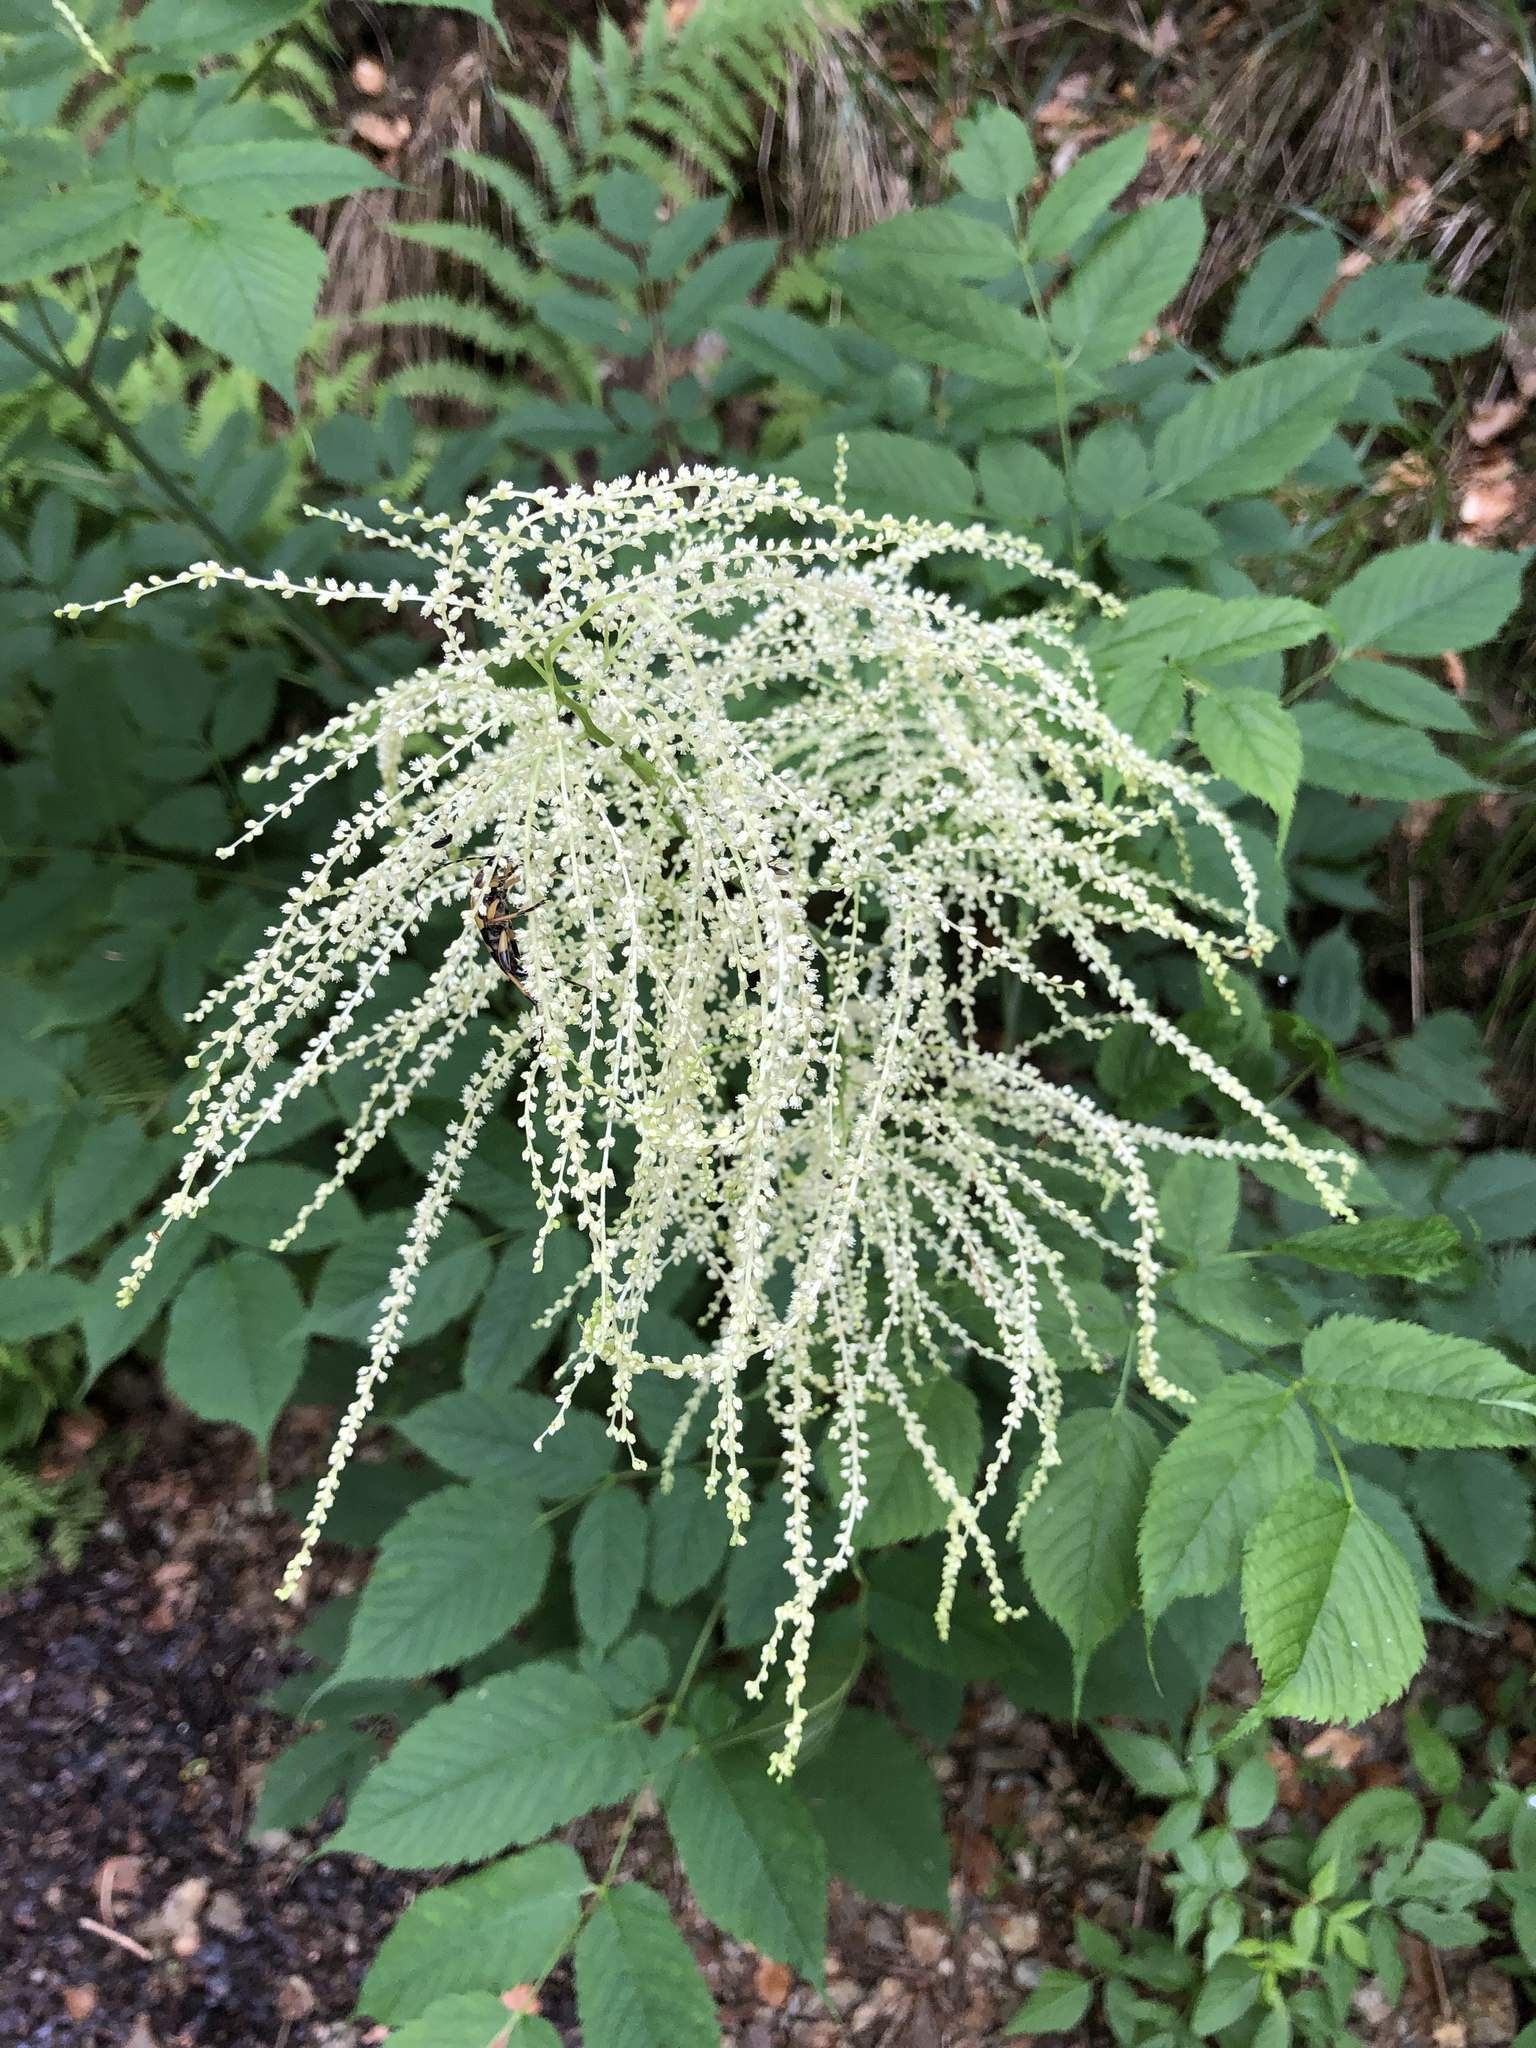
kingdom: Plantae
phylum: Tracheophyta
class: Magnoliopsida
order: Rosales
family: Rosaceae
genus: Aruncus
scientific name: Aruncus dioicus
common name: Buck's-beard
